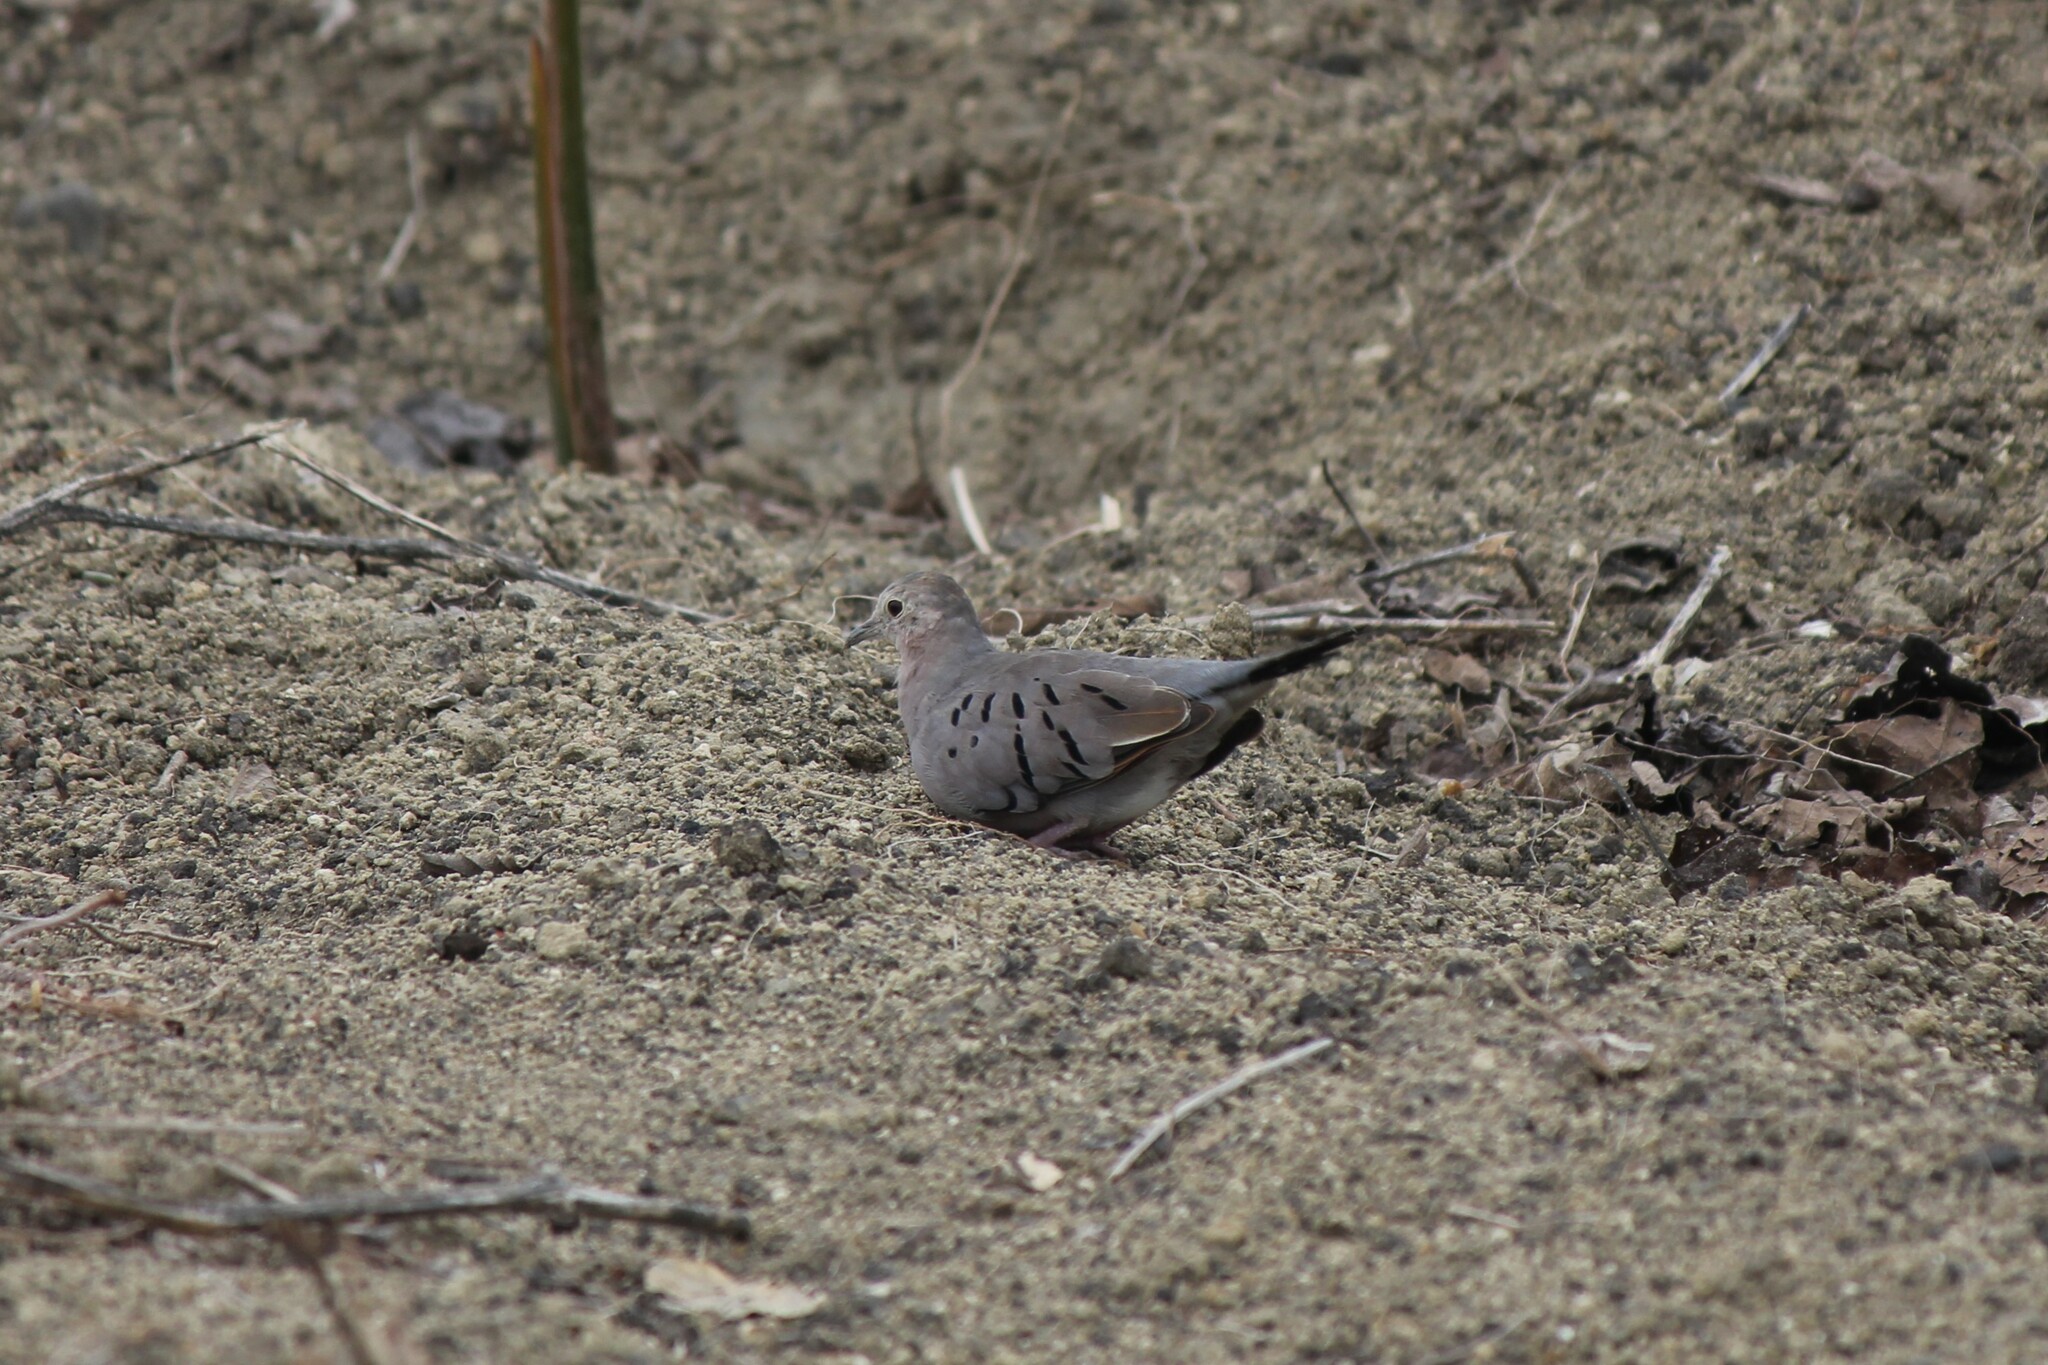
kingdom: Animalia
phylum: Chordata
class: Aves
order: Columbiformes
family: Columbidae
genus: Columbina
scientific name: Columbina buckleyi
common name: Ecuadorian ground dove
